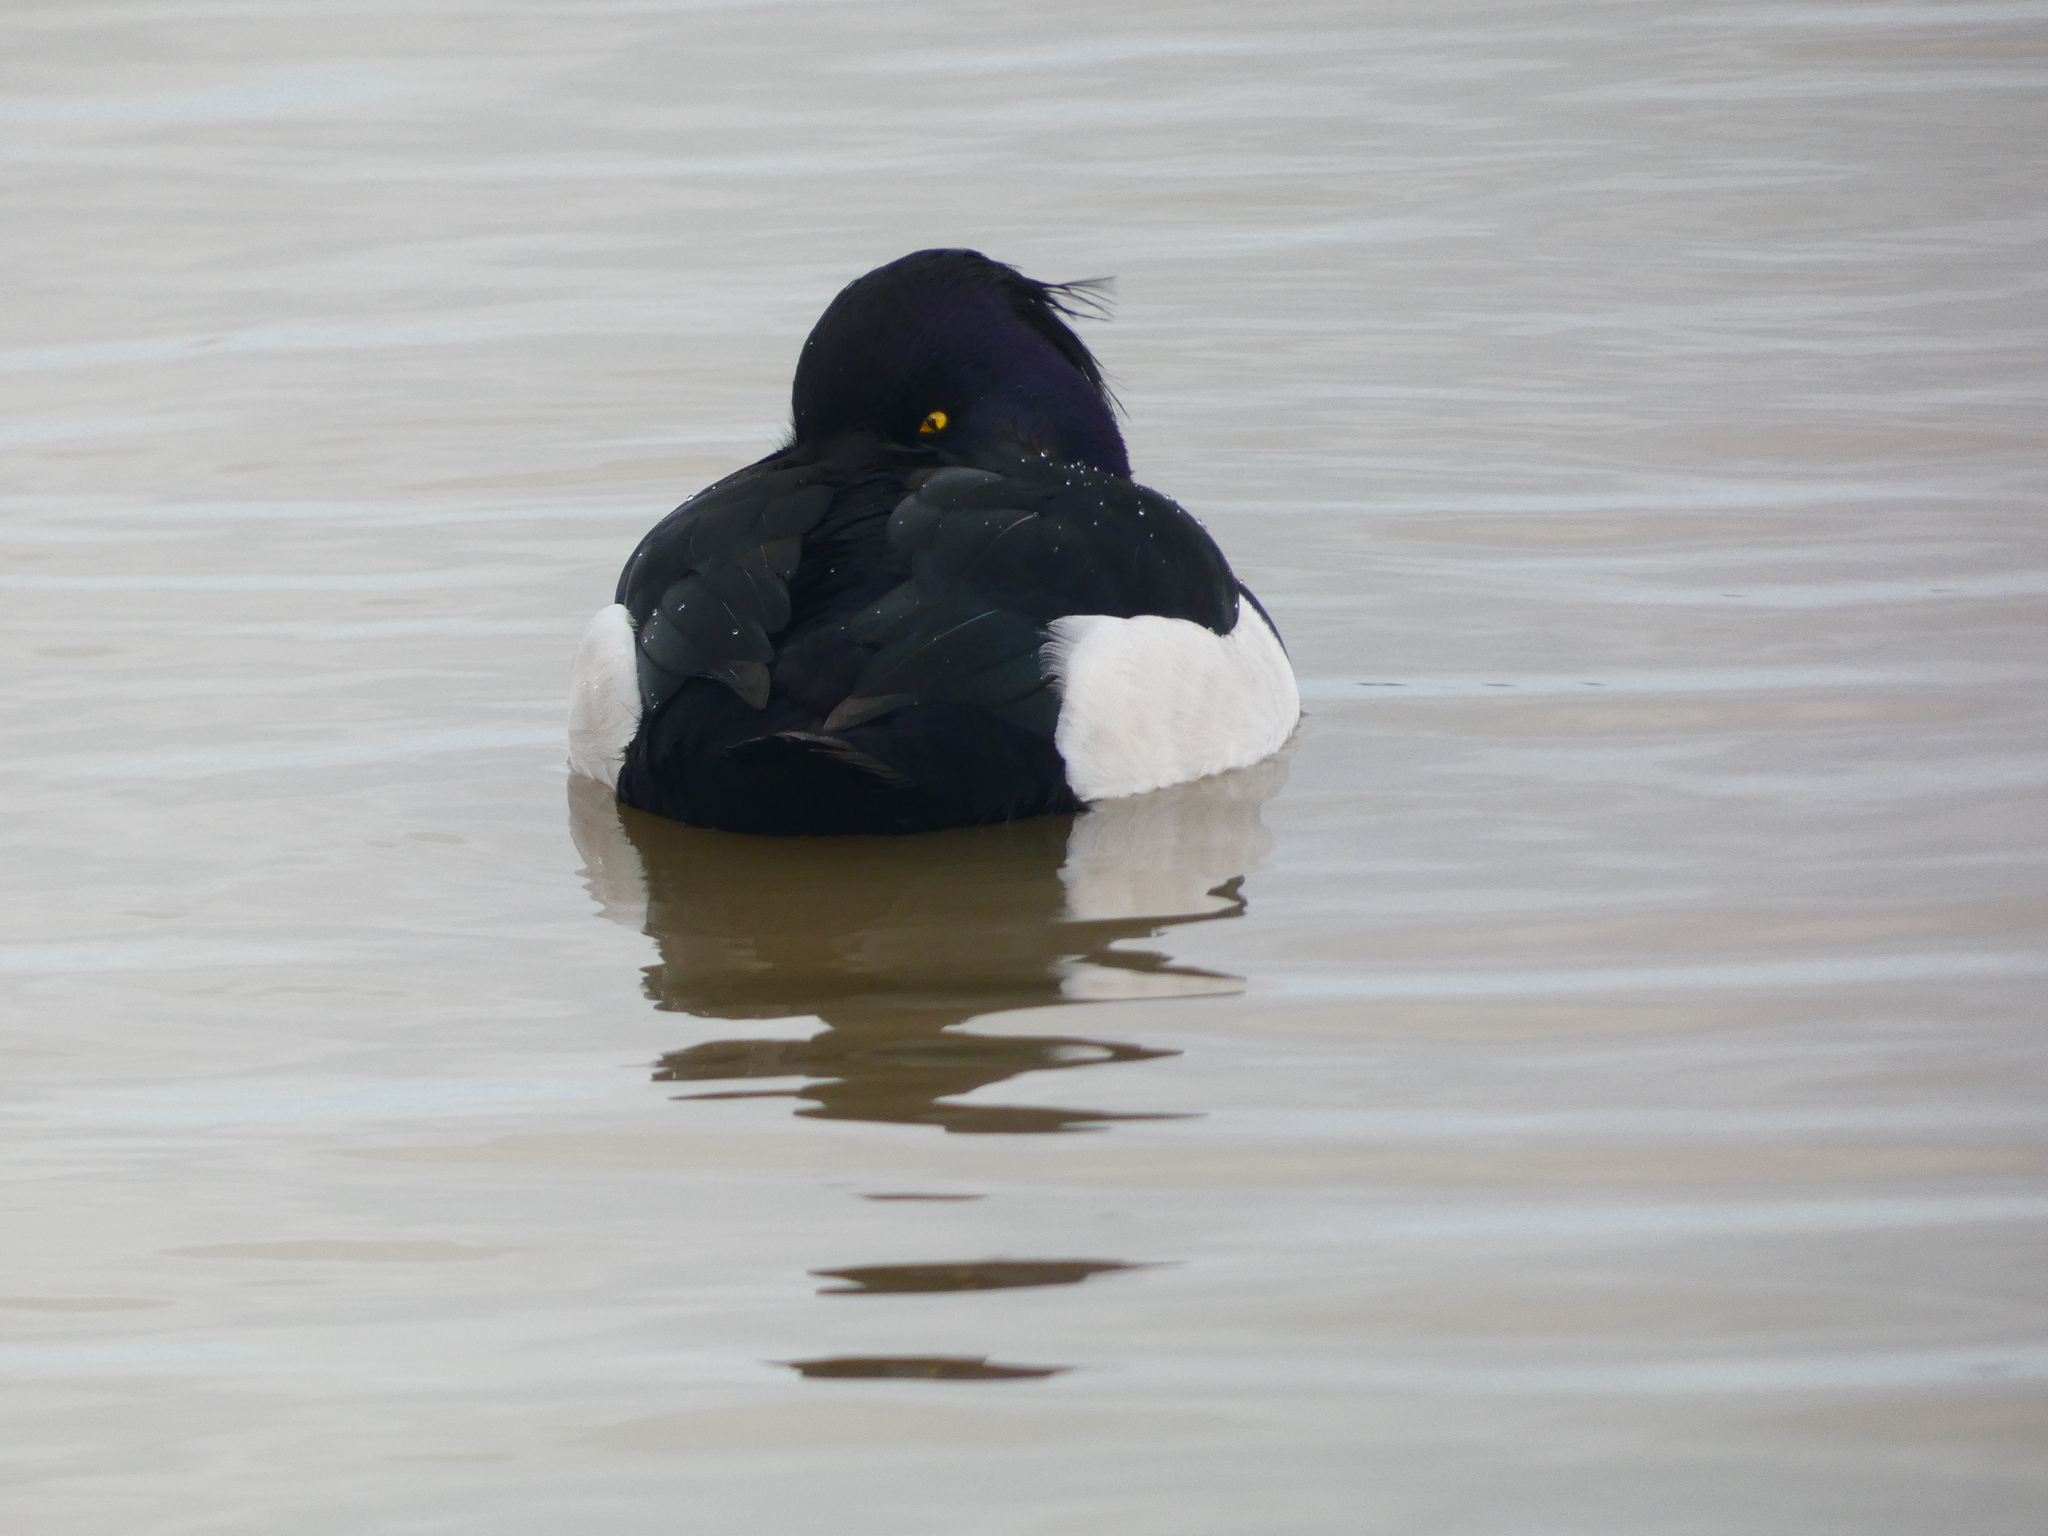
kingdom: Animalia
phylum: Chordata
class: Aves
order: Anseriformes
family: Anatidae
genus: Aythya
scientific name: Aythya fuligula
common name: Tufted duck
